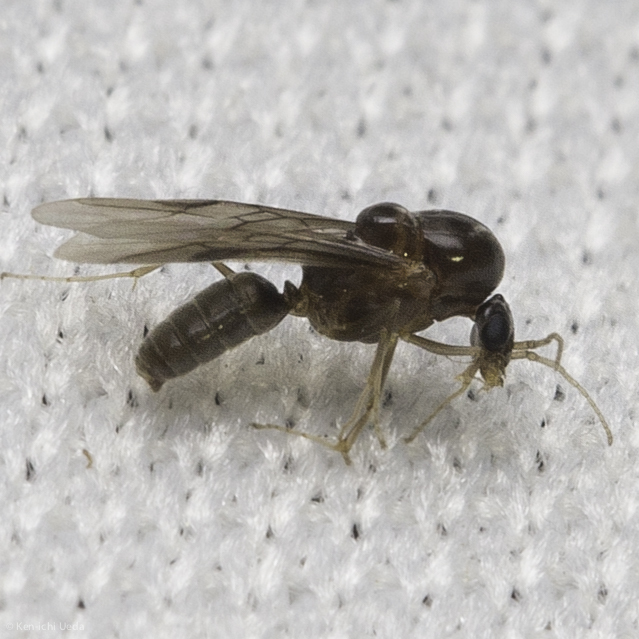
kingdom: Animalia
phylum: Arthropoda
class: Insecta
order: Hymenoptera
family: Formicidae
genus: Linepithema
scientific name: Linepithema humile
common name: Argentine ant
